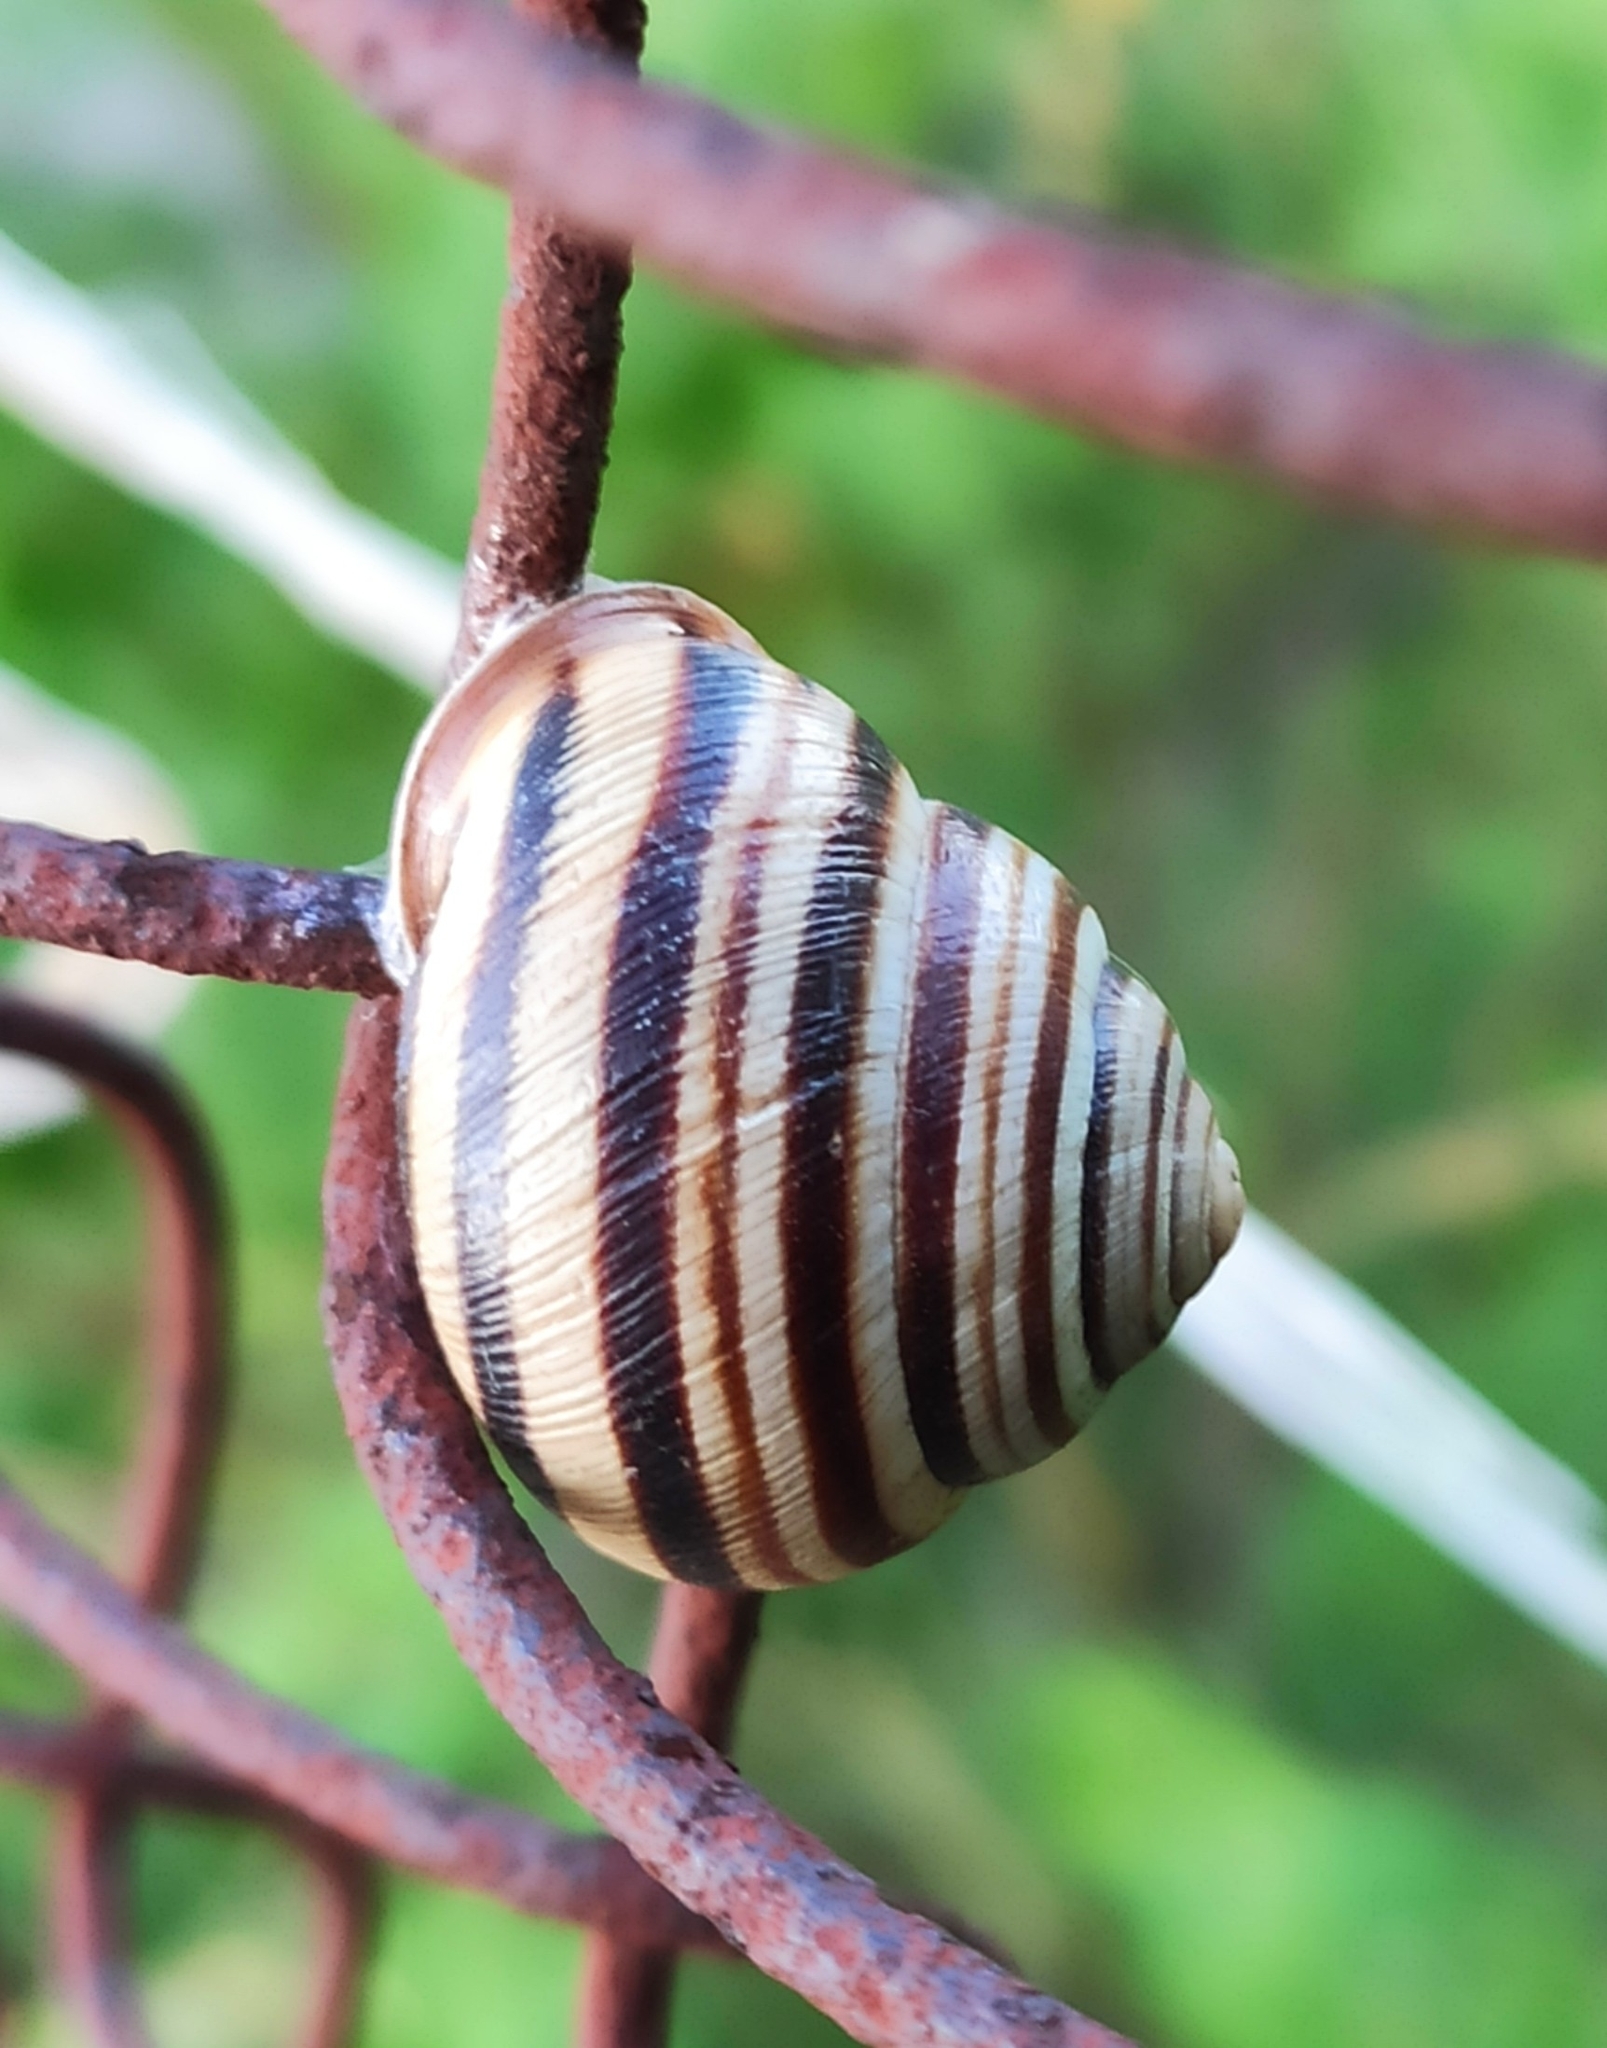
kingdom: Animalia
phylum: Mollusca
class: Gastropoda
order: Stylommatophora
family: Helicidae
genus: Caucasotachea
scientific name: Caucasotachea vindobonensis
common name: European helicid land snail
